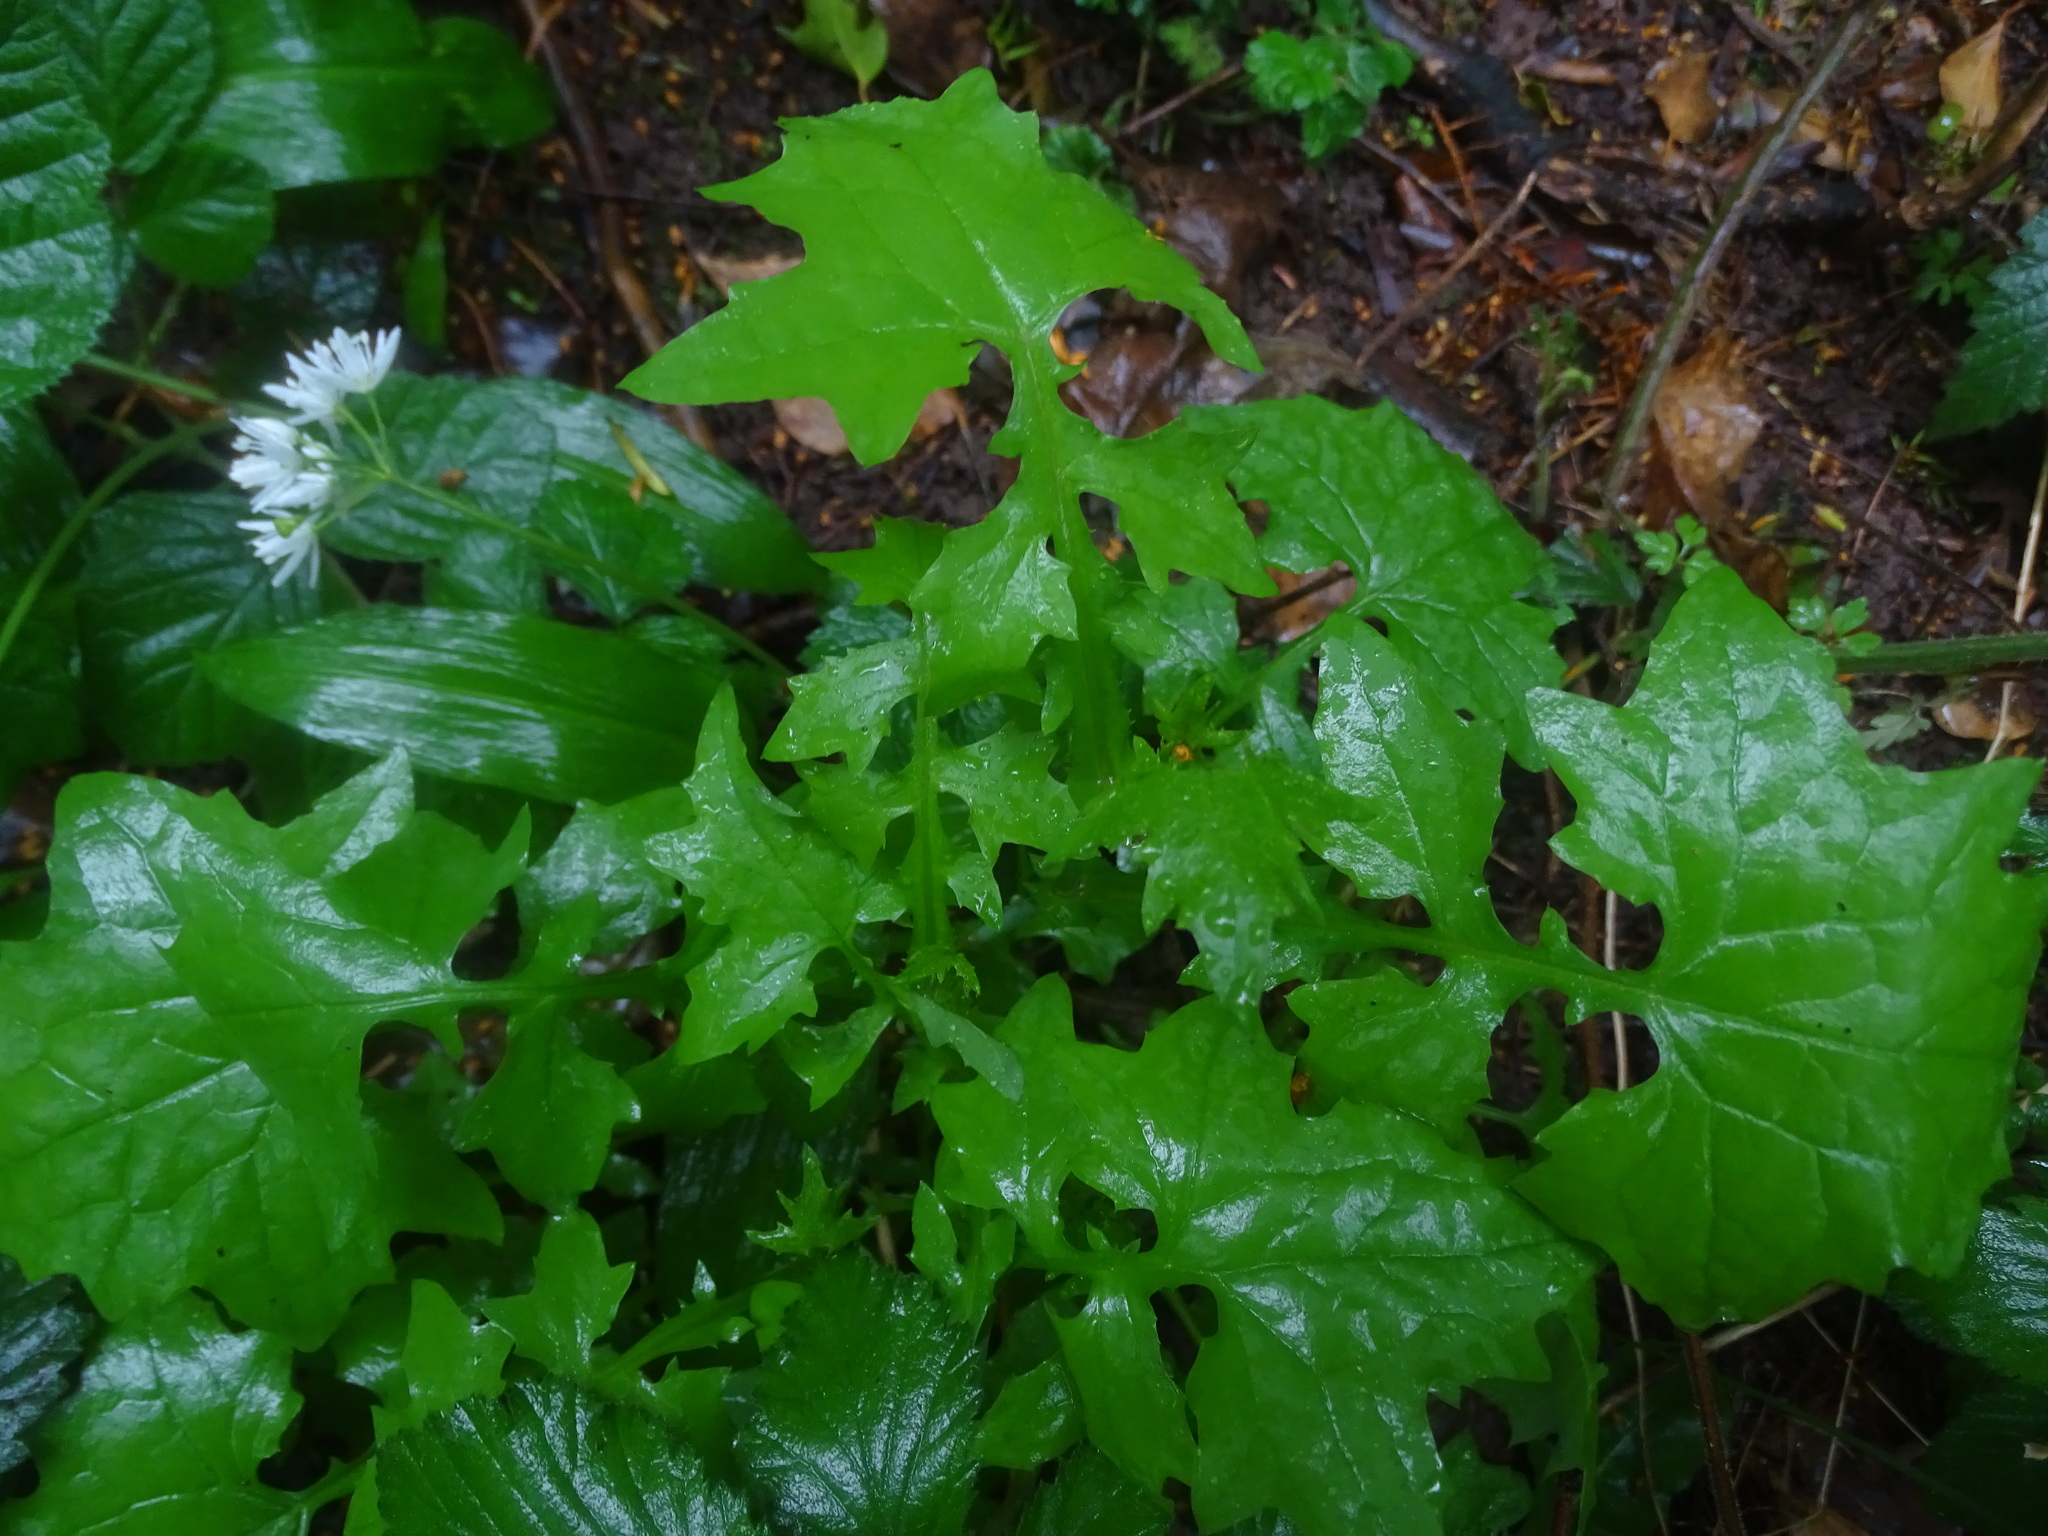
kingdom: Plantae
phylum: Tracheophyta
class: Magnoliopsida
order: Asterales
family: Asteraceae
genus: Mycelis
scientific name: Mycelis muralis
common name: Wall lettuce
